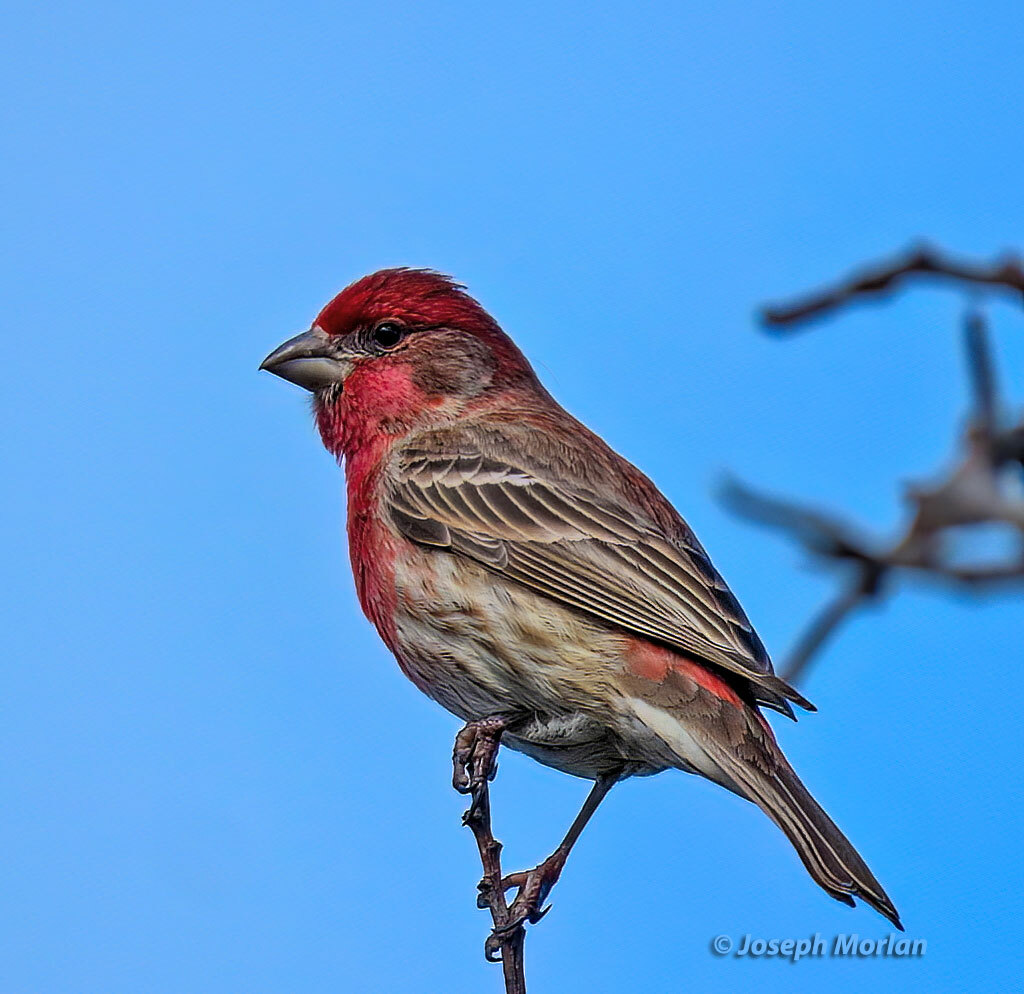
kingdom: Animalia
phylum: Chordata
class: Aves
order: Passeriformes
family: Fringillidae
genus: Haemorhous
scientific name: Haemorhous mexicanus
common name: House finch
